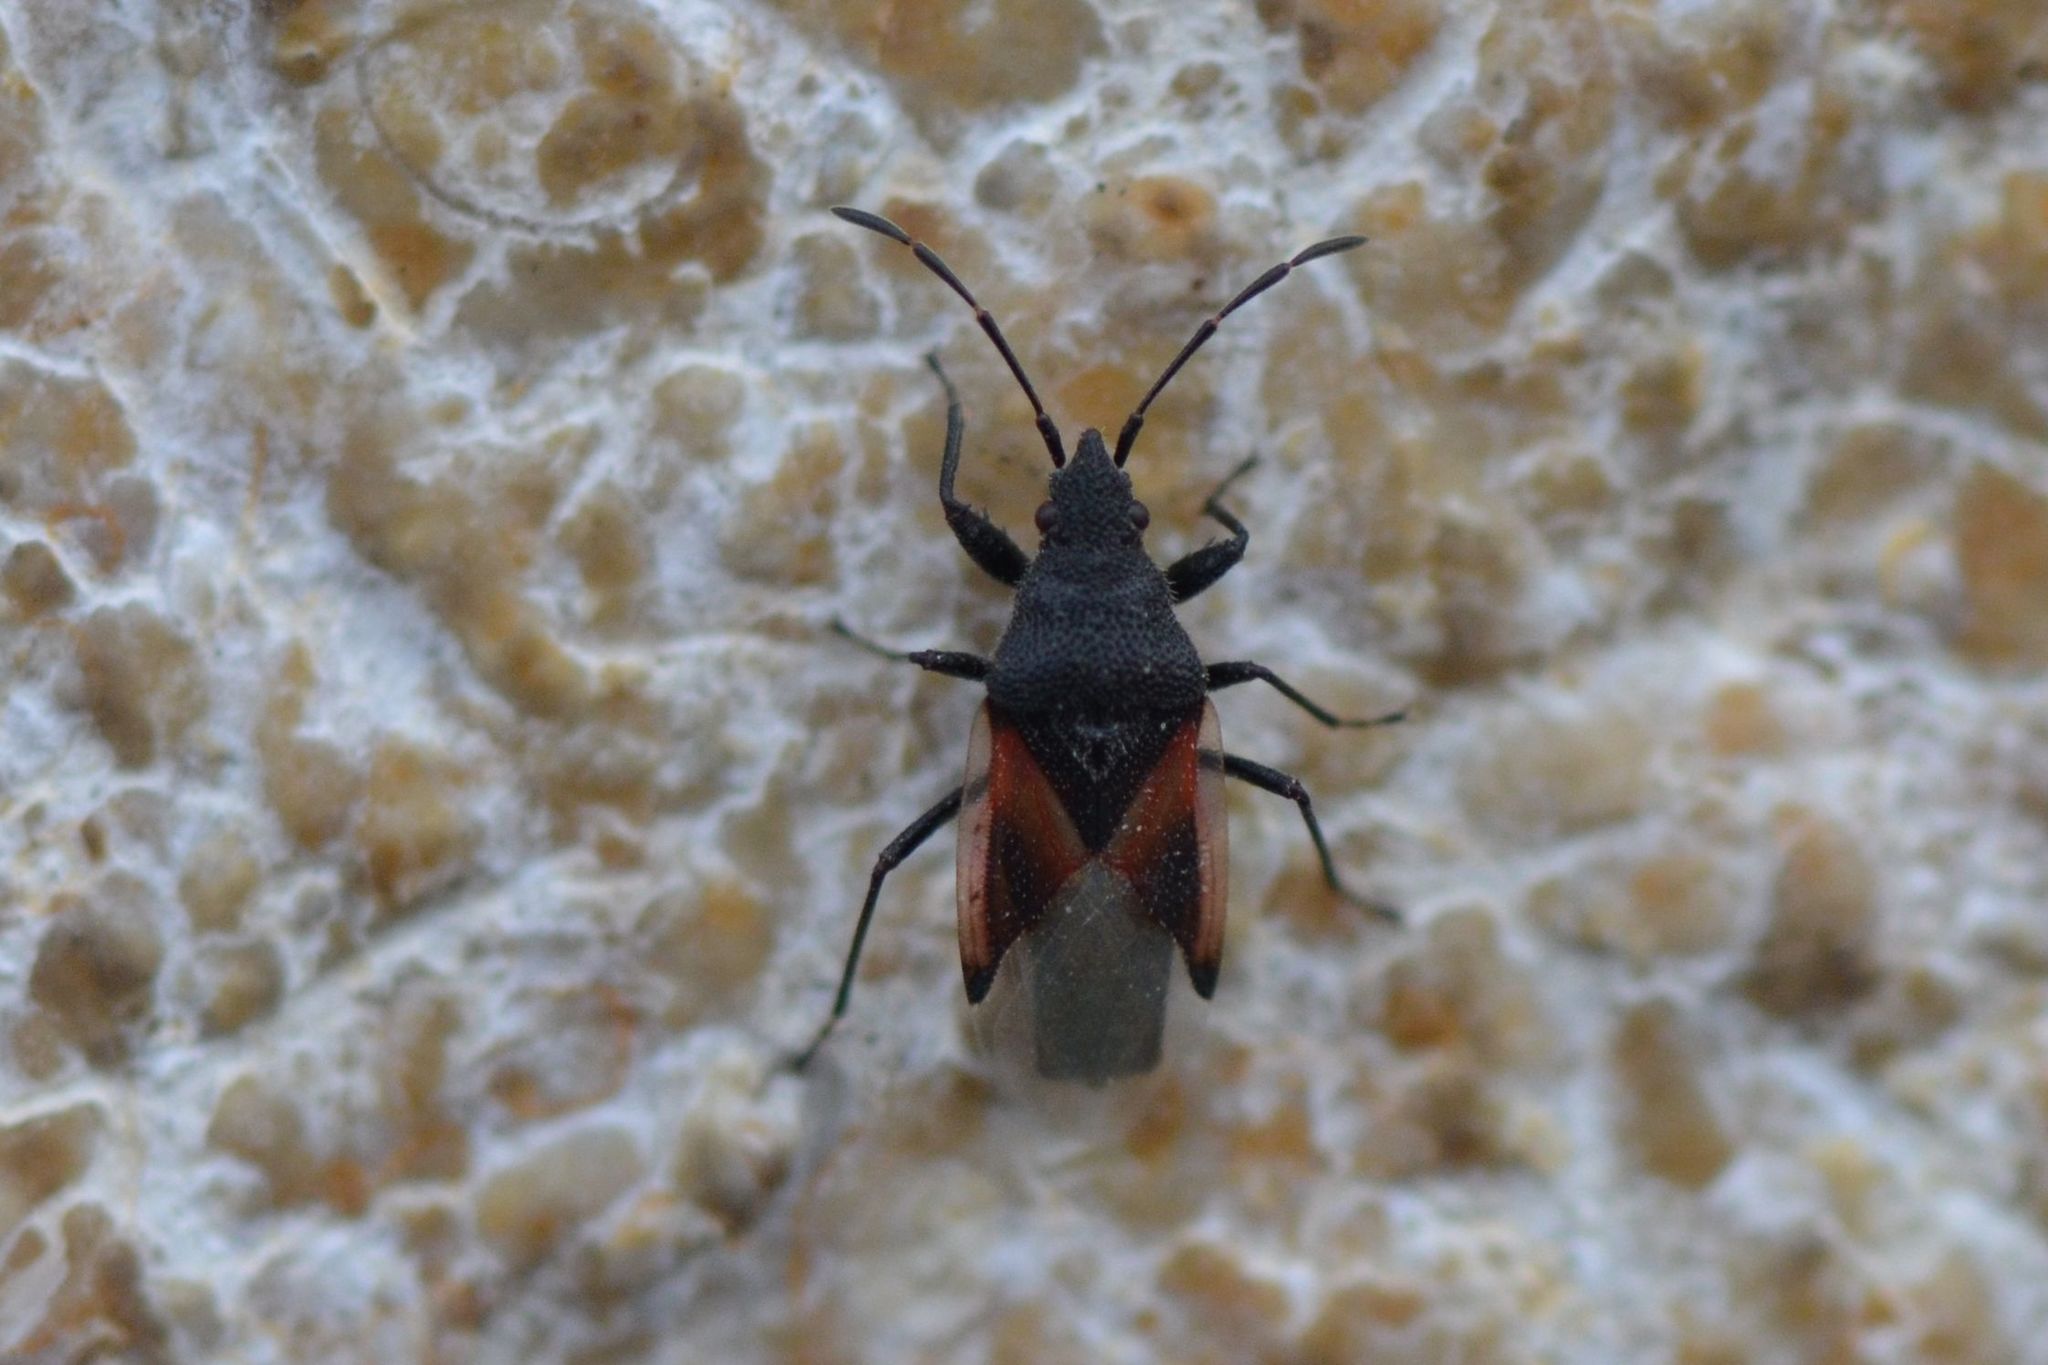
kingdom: Animalia
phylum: Arthropoda
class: Insecta
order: Hemiptera
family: Oxycarenidae
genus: Oxycarenus
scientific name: Oxycarenus lavaterae
